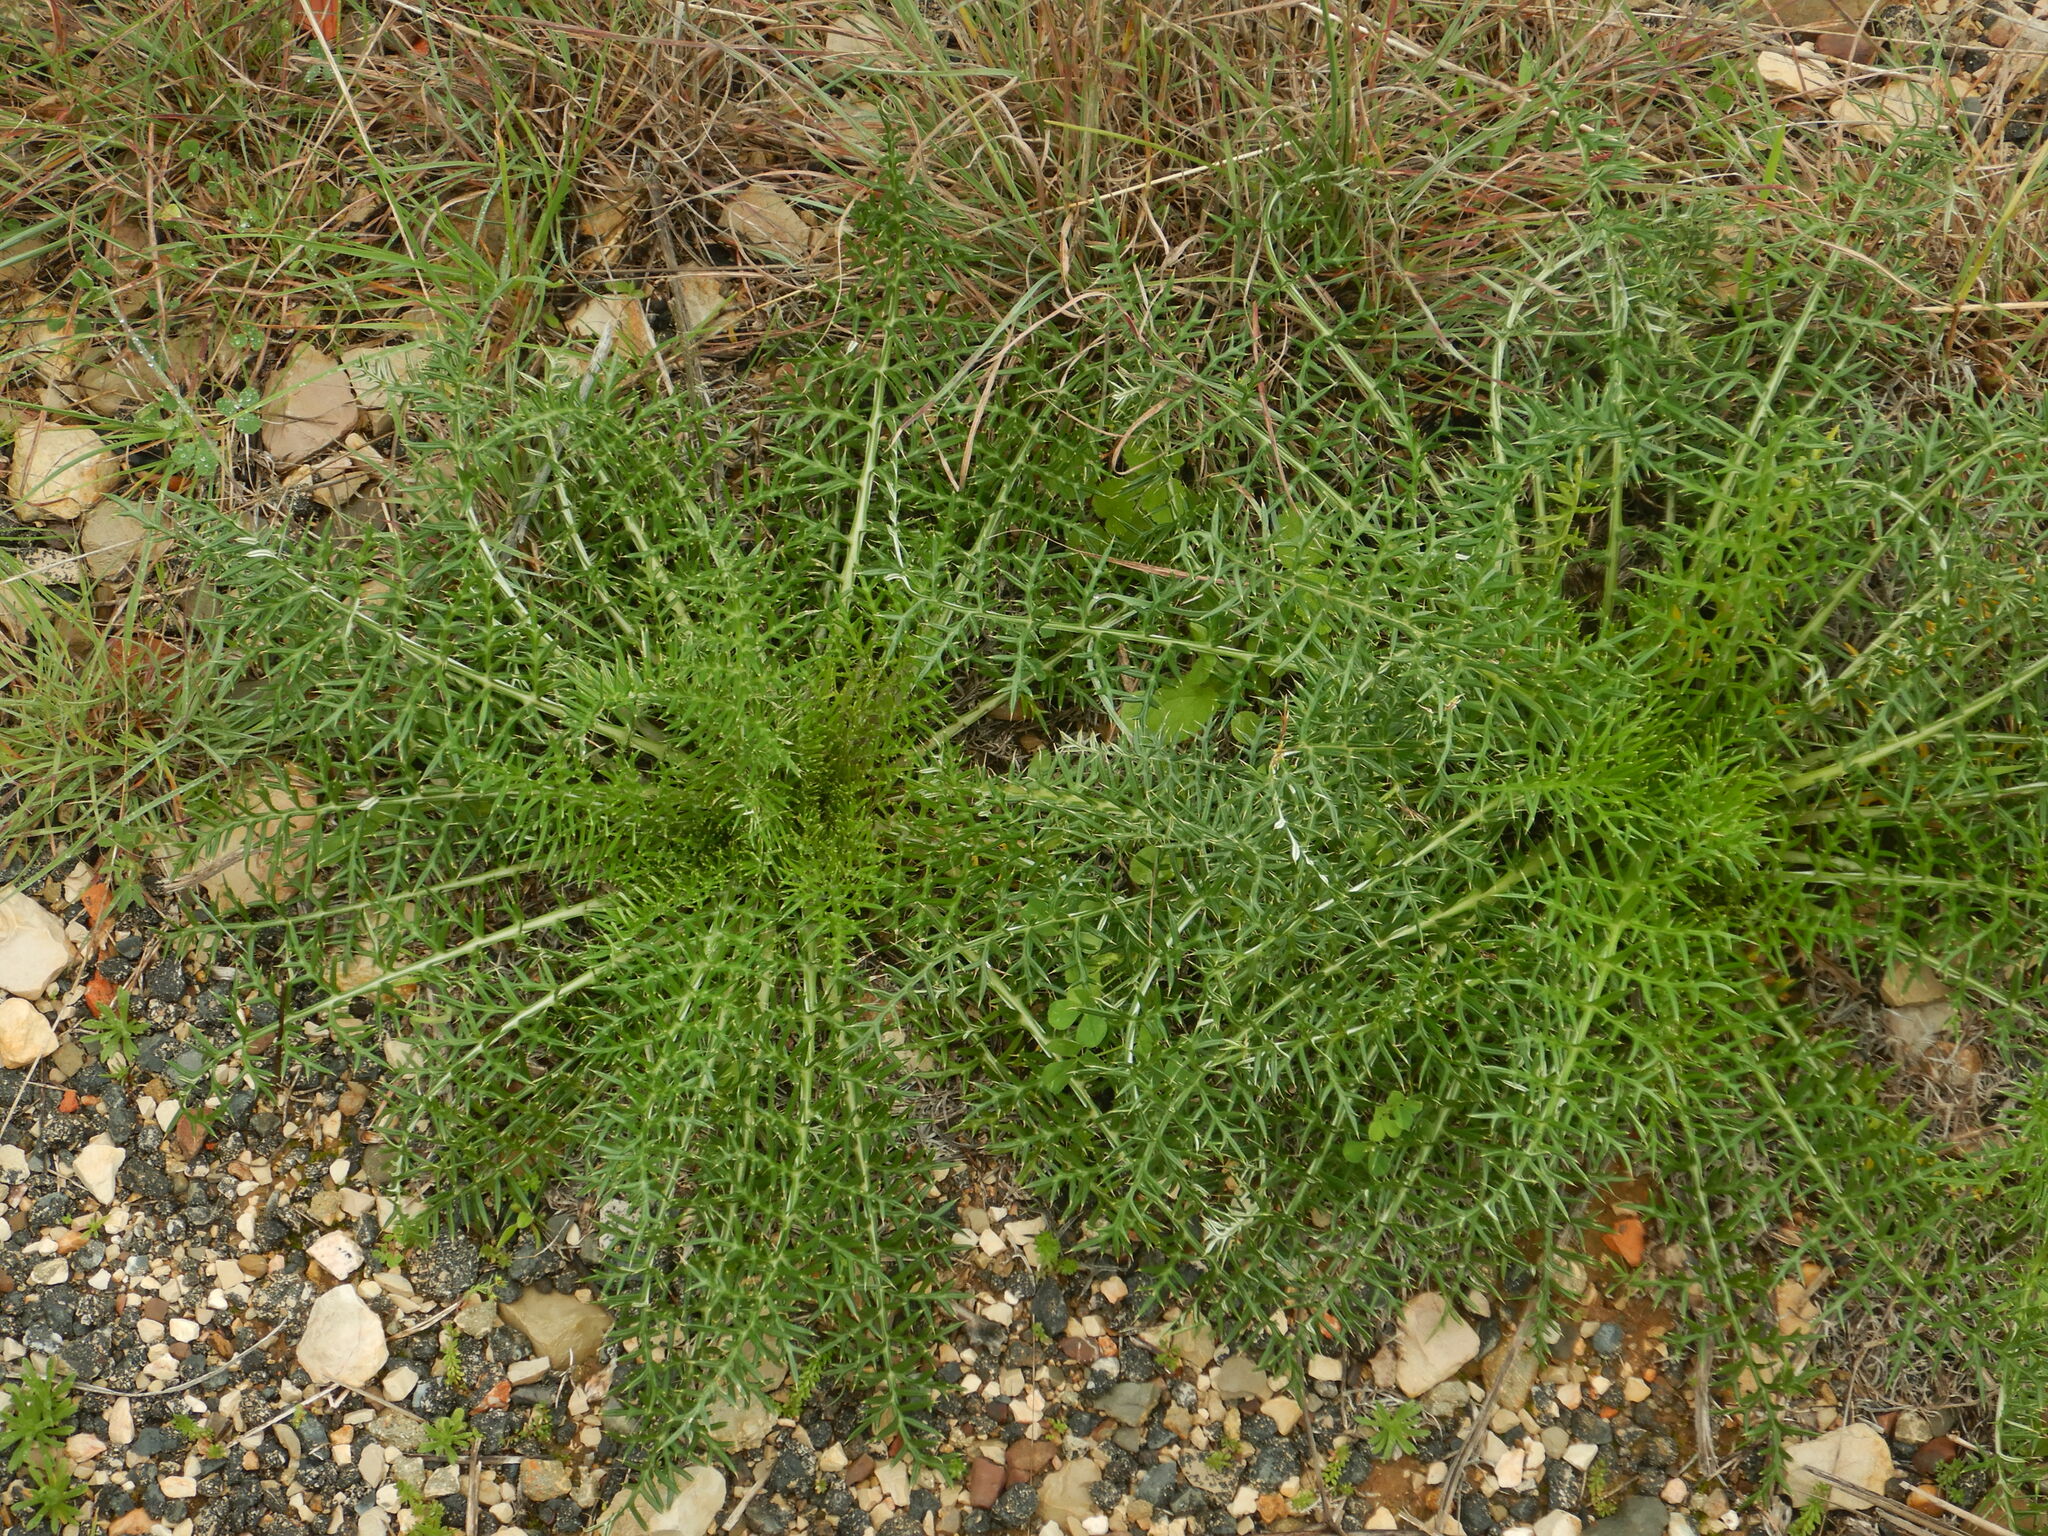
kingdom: Plantae
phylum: Tracheophyta
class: Magnoliopsida
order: Asterales
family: Asteraceae
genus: Cynara
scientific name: Cynara humilis
